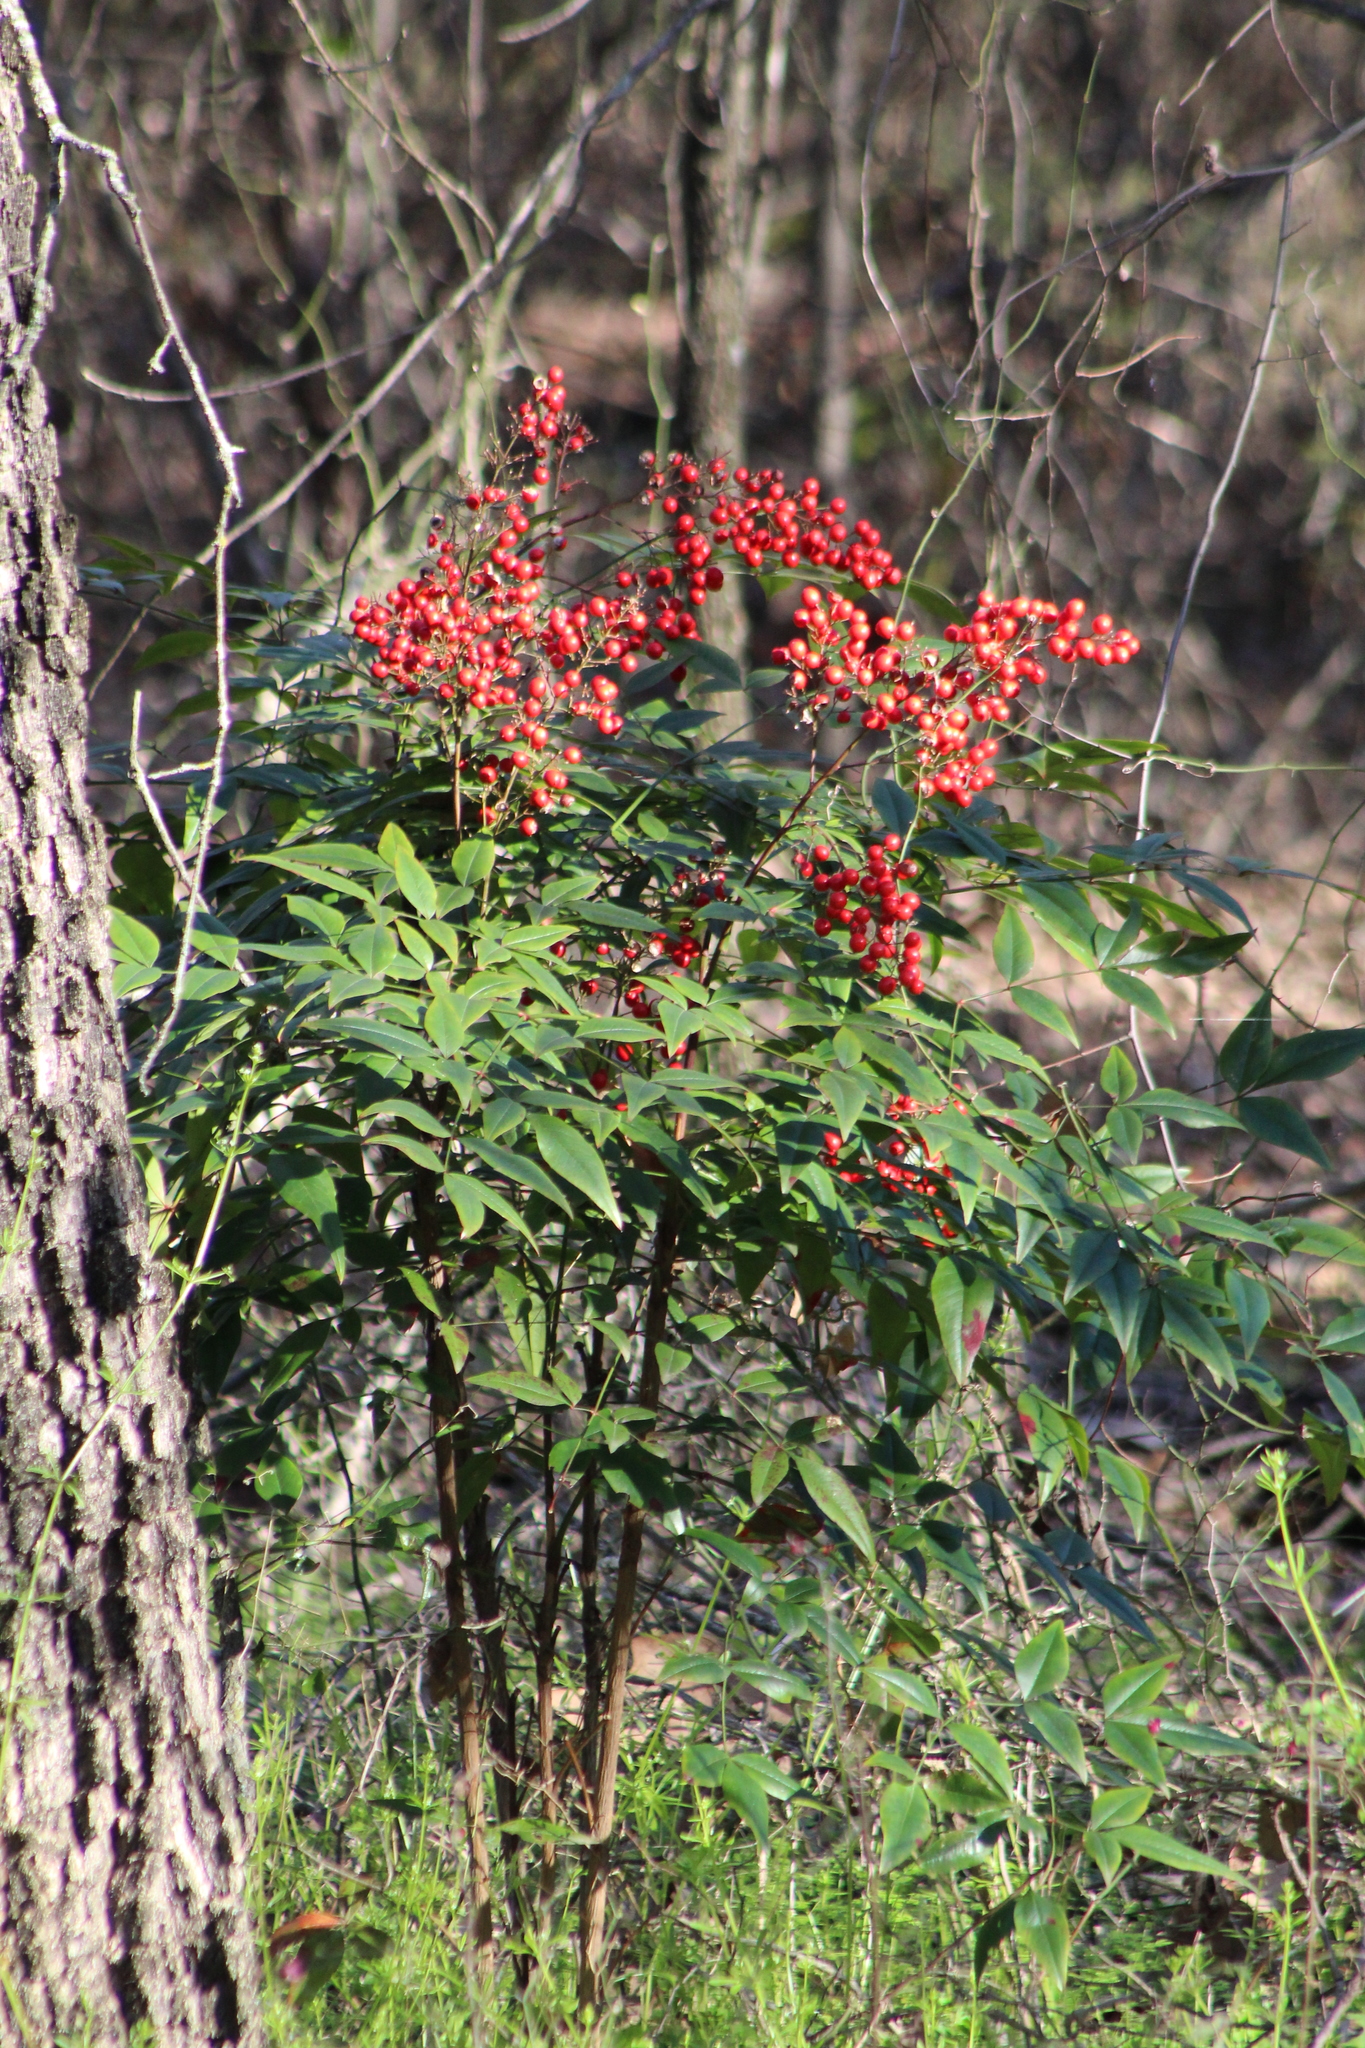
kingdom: Plantae
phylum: Tracheophyta
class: Magnoliopsida
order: Ranunculales
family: Berberidaceae
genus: Nandina
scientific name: Nandina domestica
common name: Sacred bamboo
